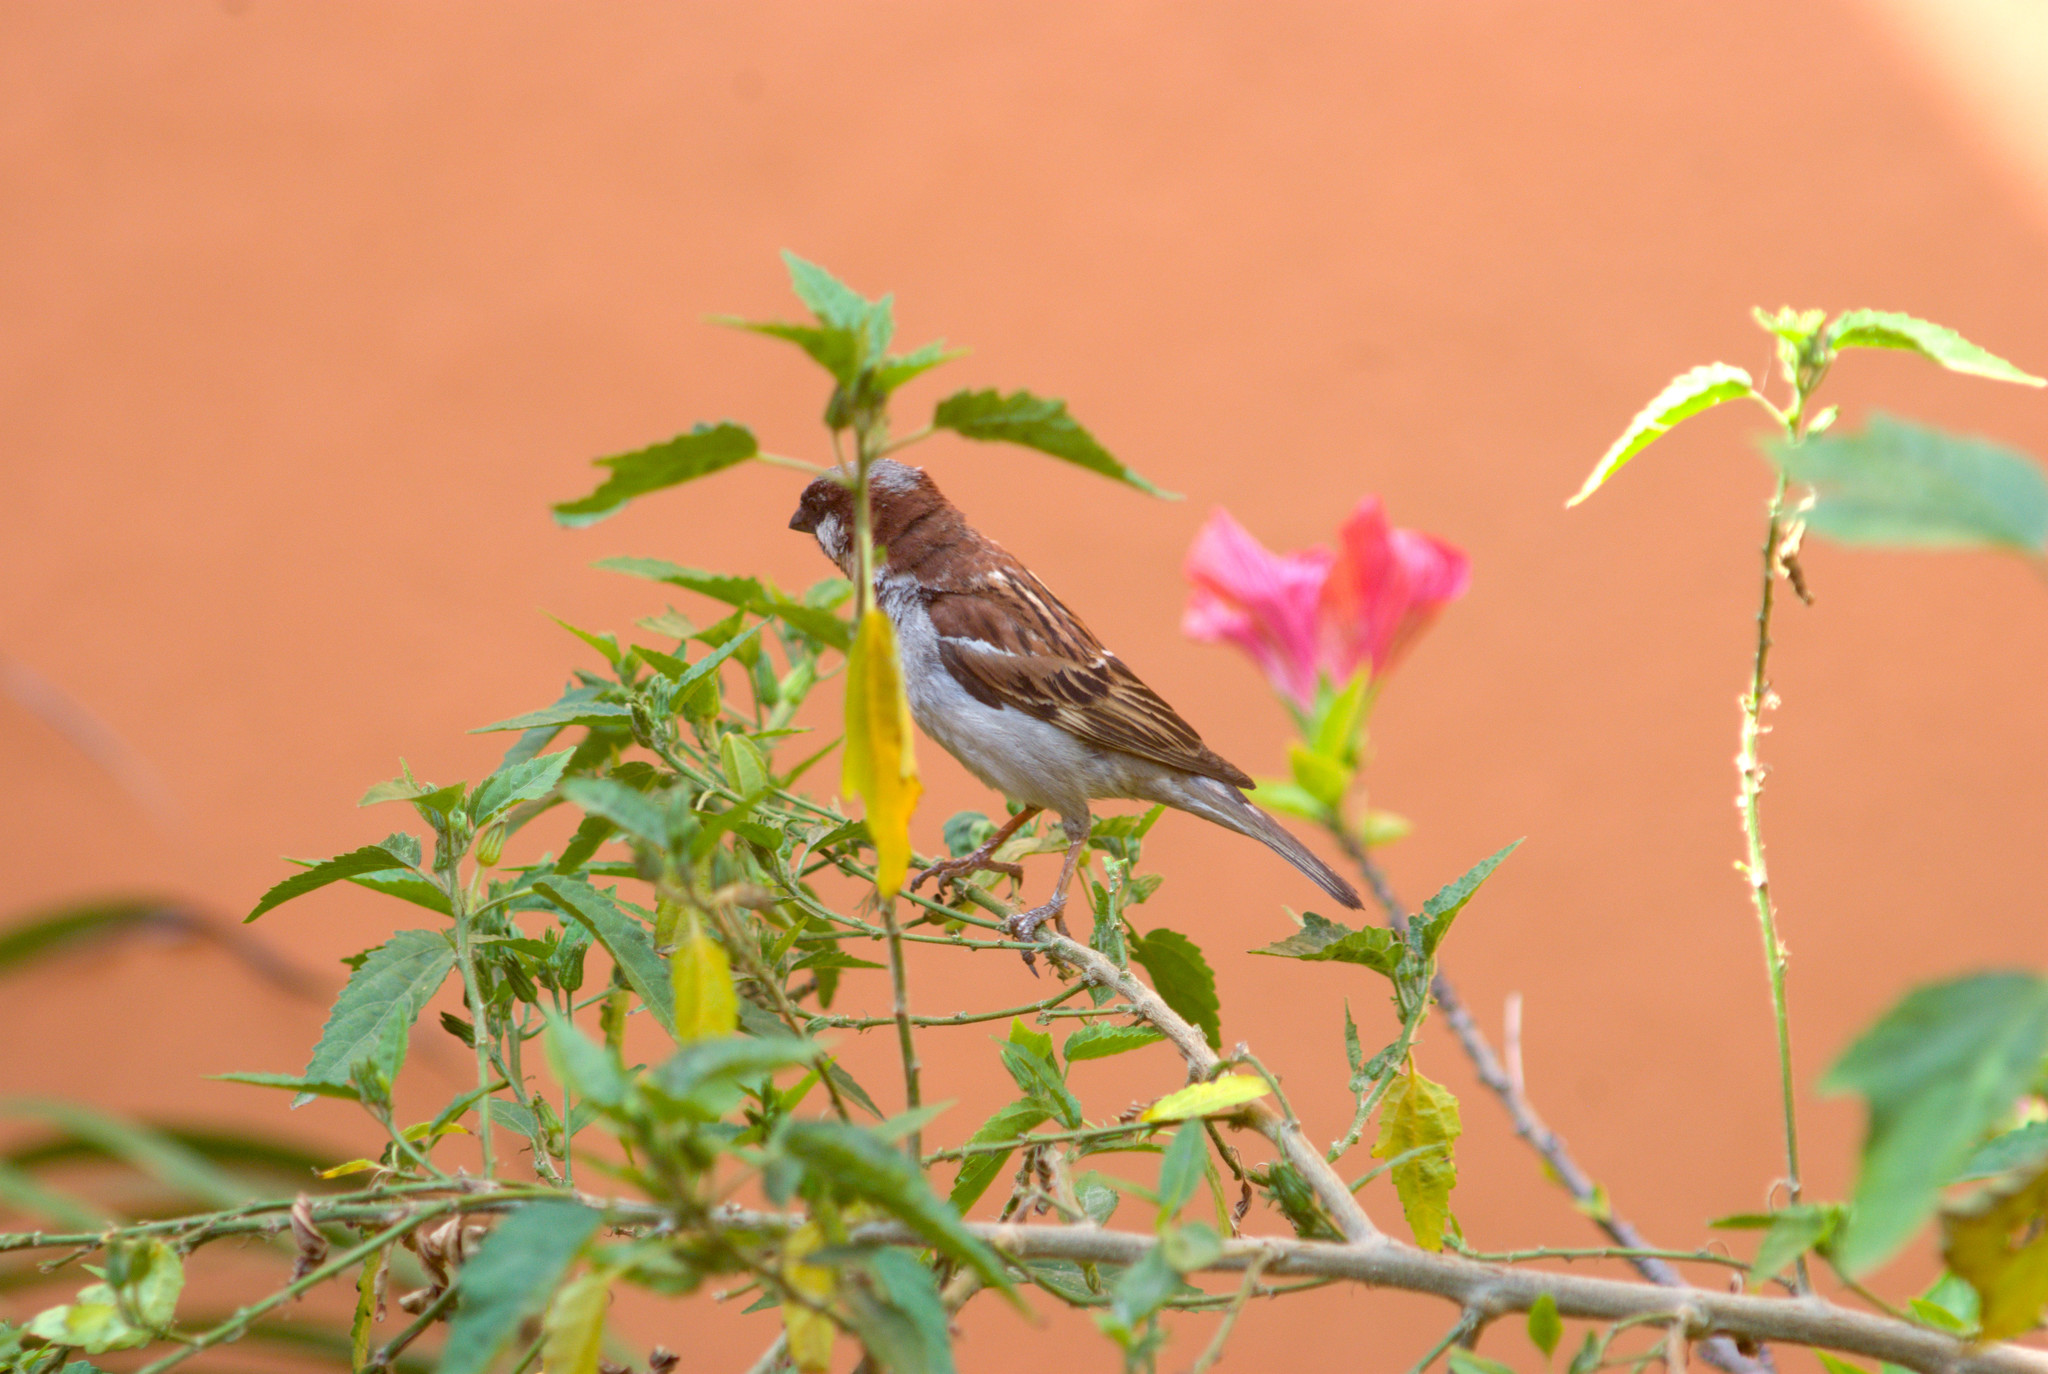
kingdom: Animalia
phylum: Chordata
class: Aves
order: Passeriformes
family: Passeridae
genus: Passer
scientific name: Passer domesticus
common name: House sparrow
